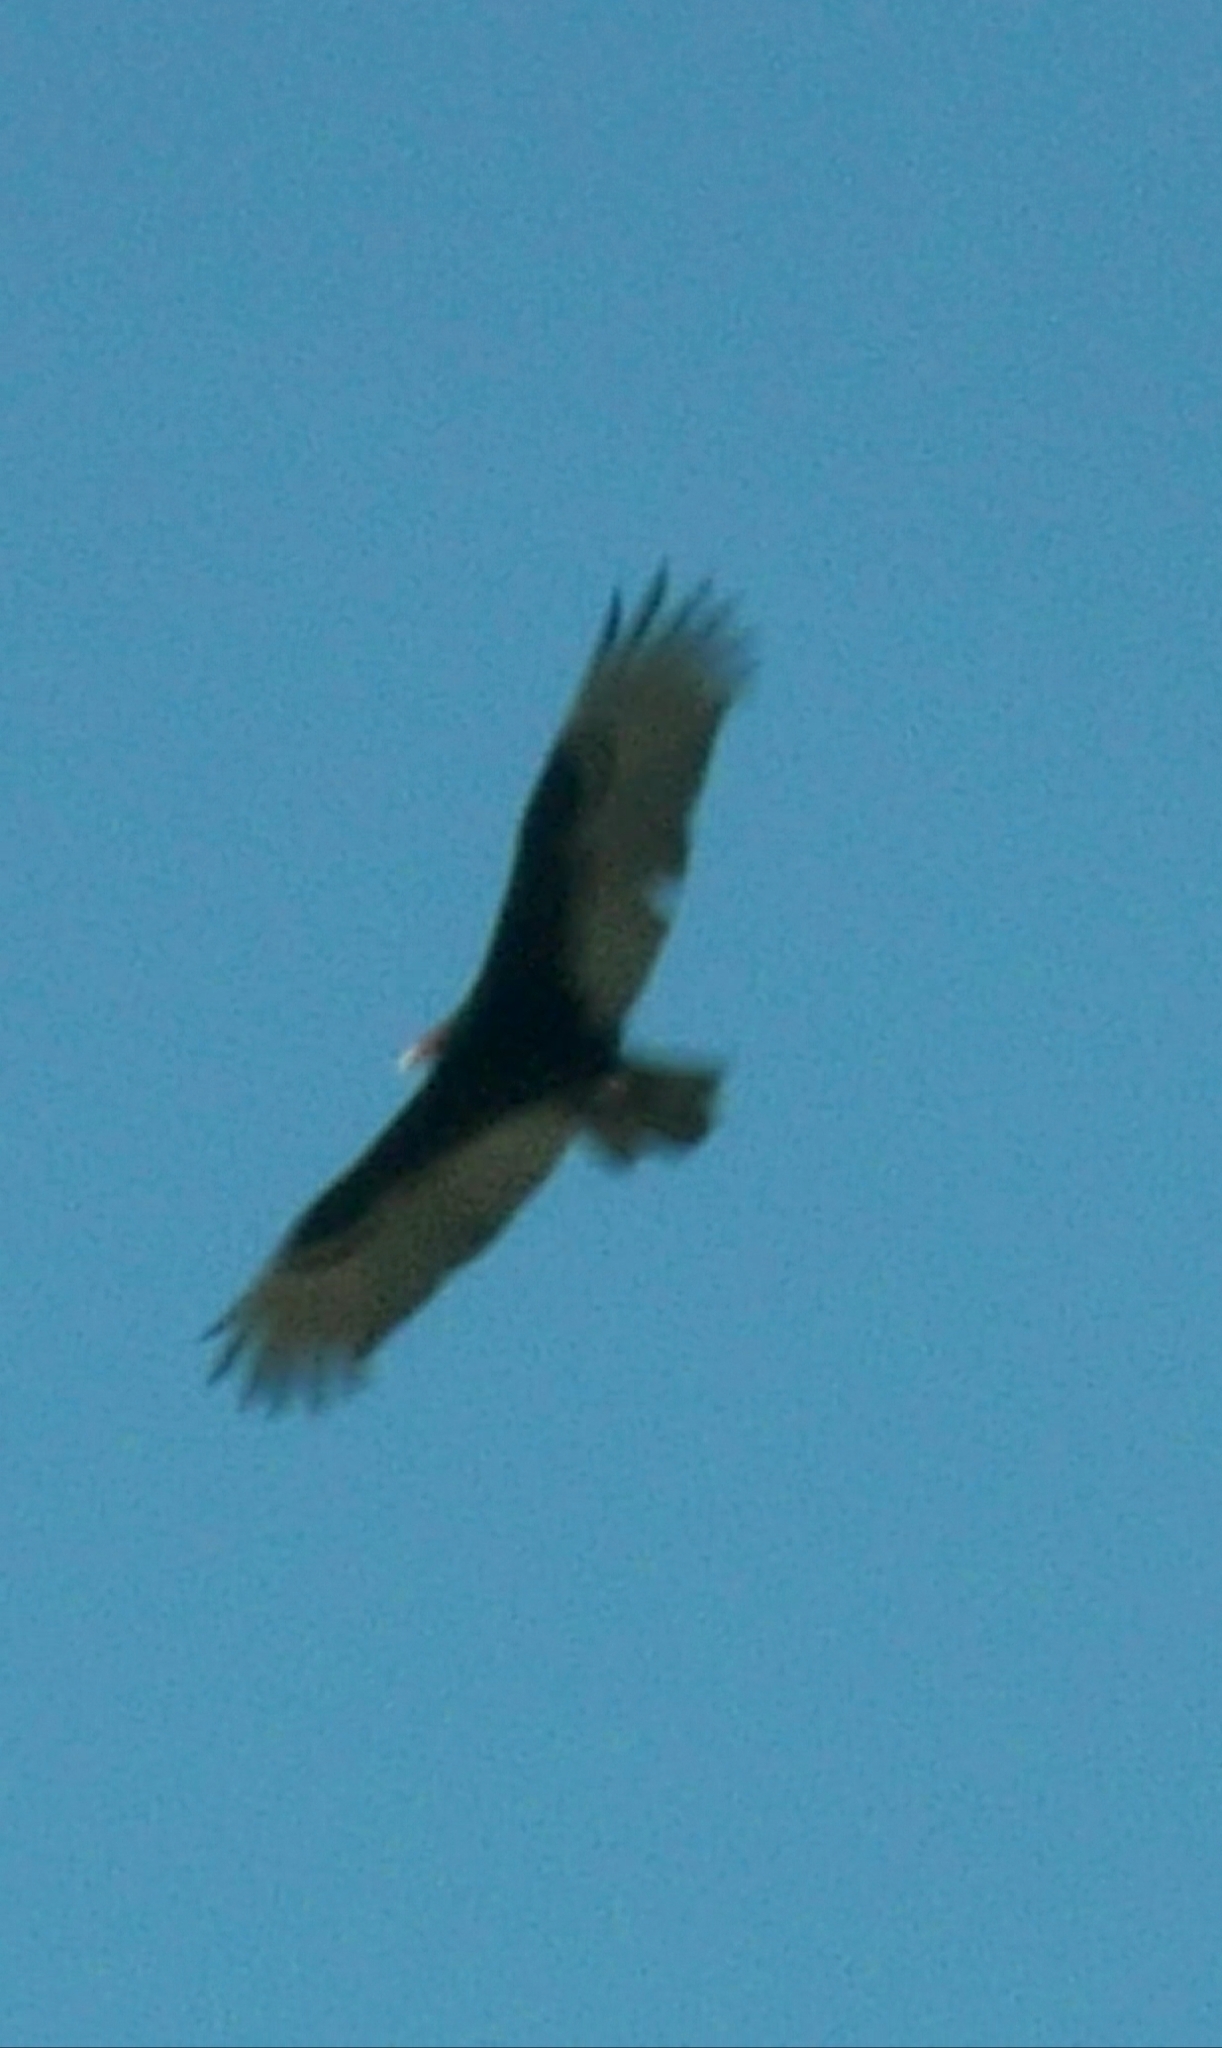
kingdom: Animalia
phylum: Chordata
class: Aves
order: Accipitriformes
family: Cathartidae
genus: Cathartes
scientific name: Cathartes aura
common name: Turkey vulture
